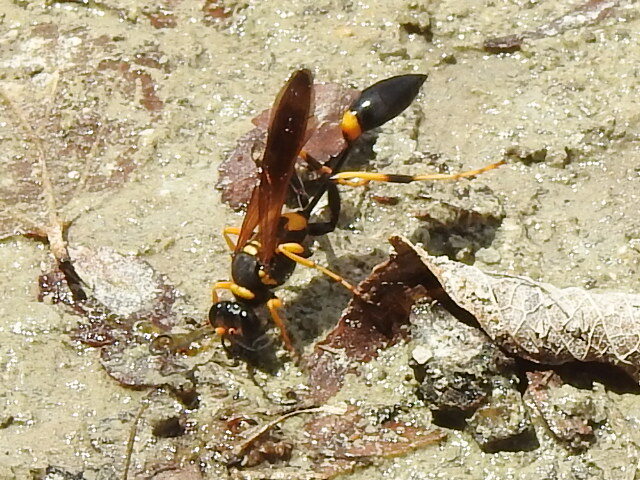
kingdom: Animalia
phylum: Arthropoda
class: Insecta
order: Hymenoptera
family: Sphecidae
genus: Sceliphron
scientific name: Sceliphron caementarium
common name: Mud dauber
